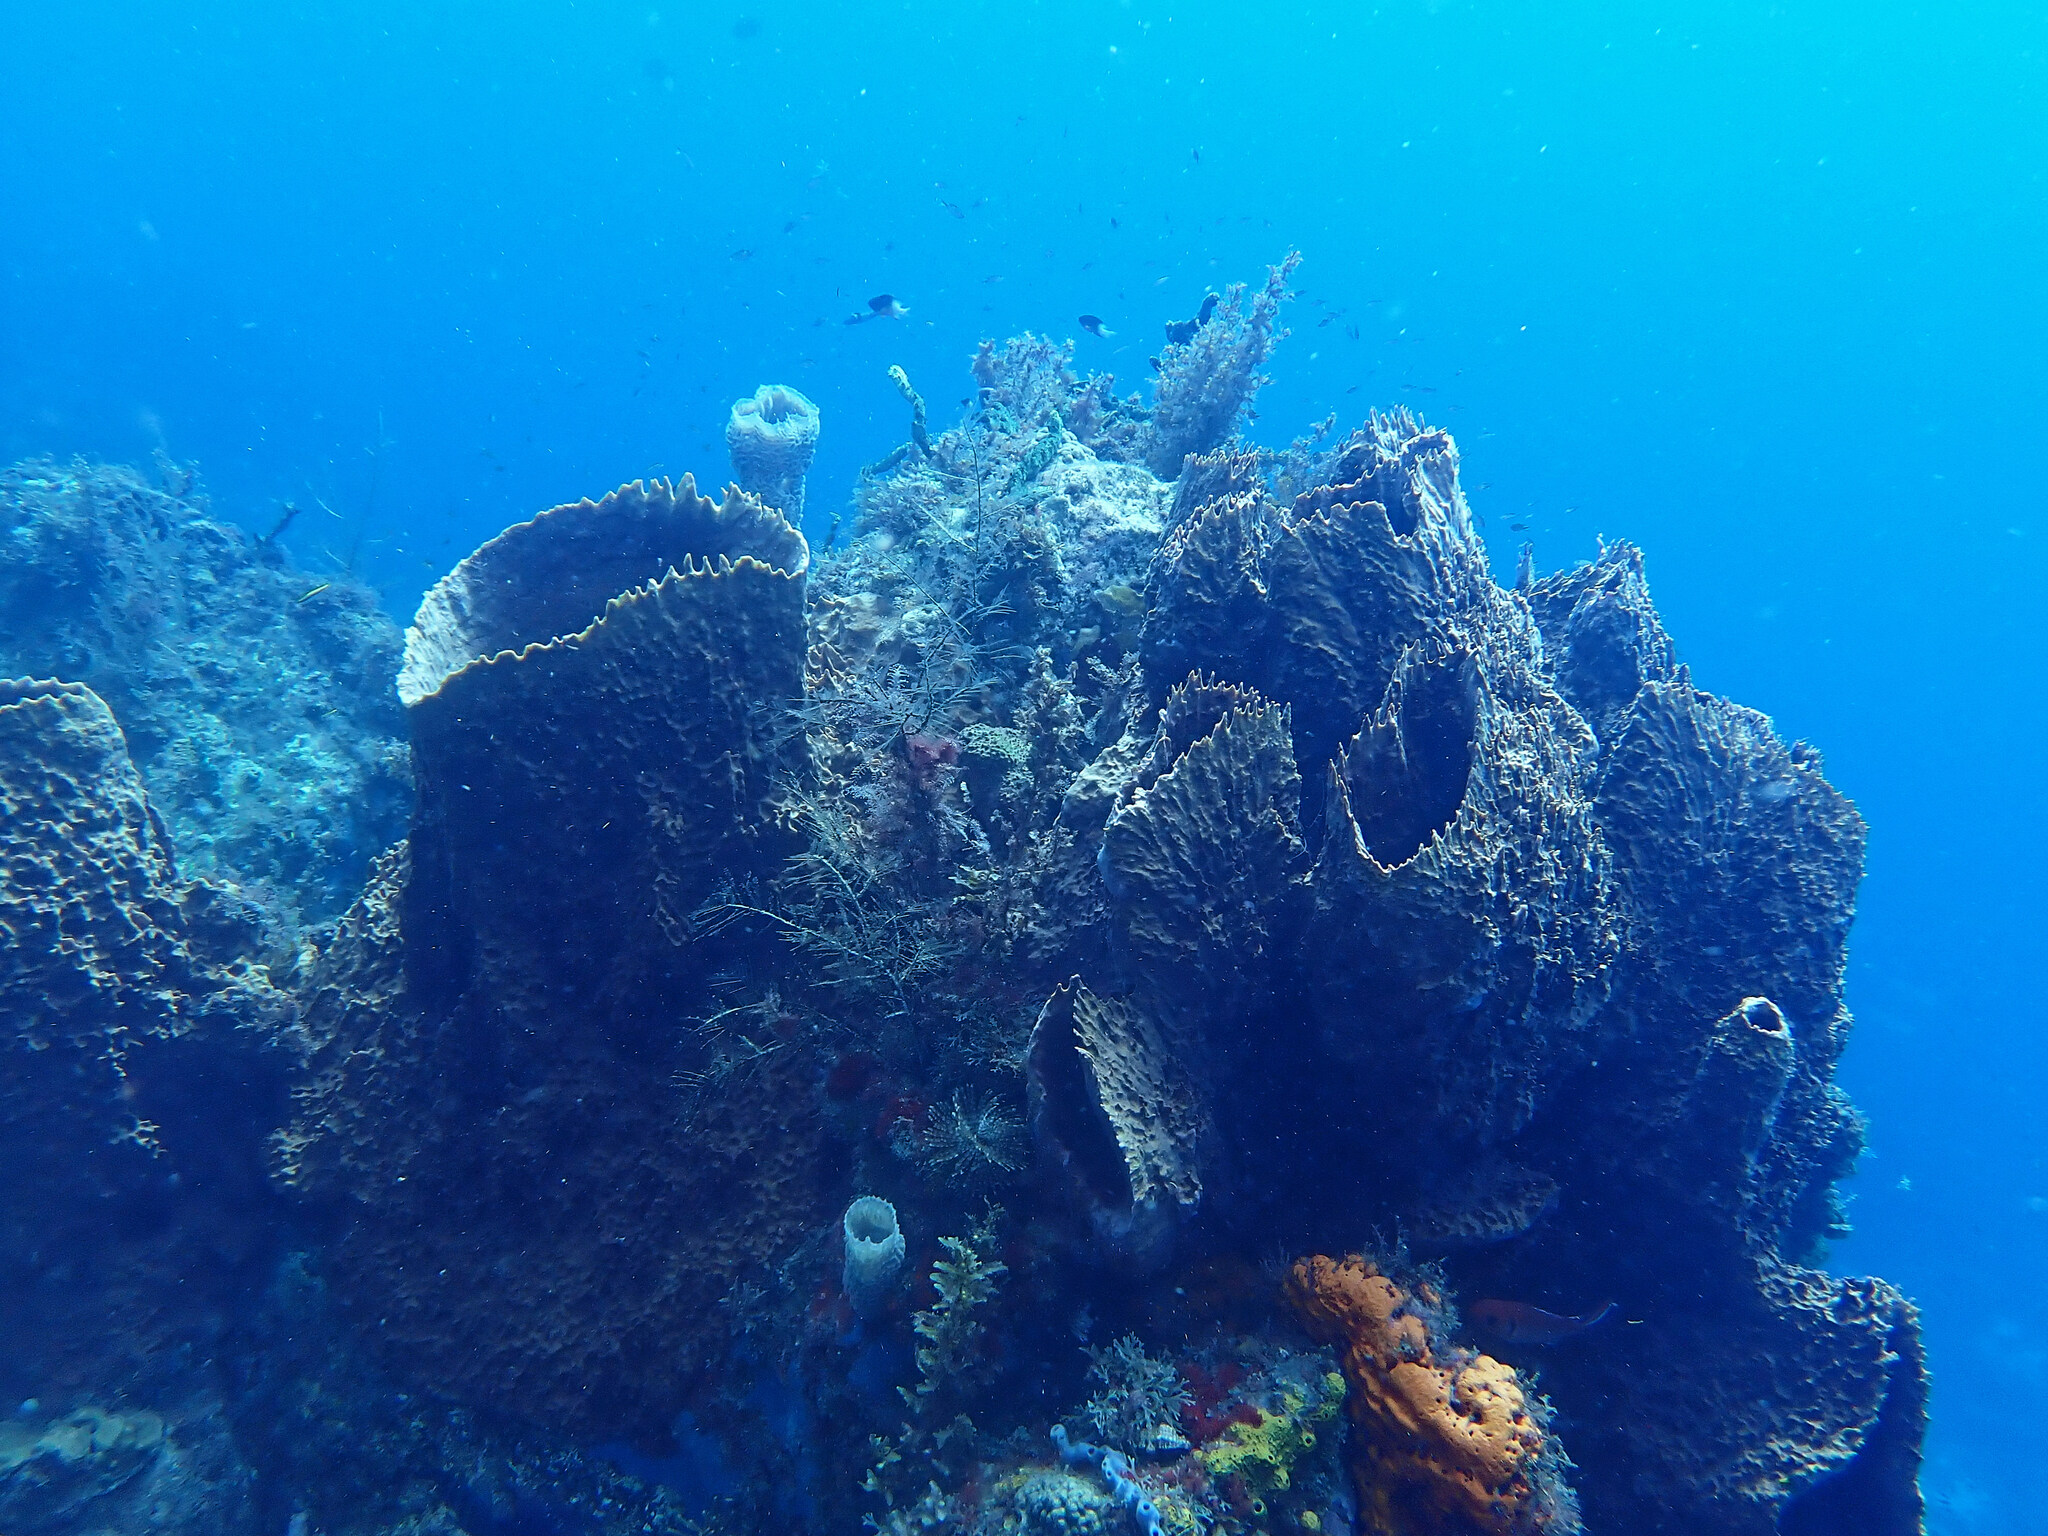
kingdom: Animalia
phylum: Porifera
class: Demospongiae
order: Haplosclerida
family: Petrosiidae
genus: Xestospongia
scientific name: Xestospongia muta
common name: Giant barrel sponge
